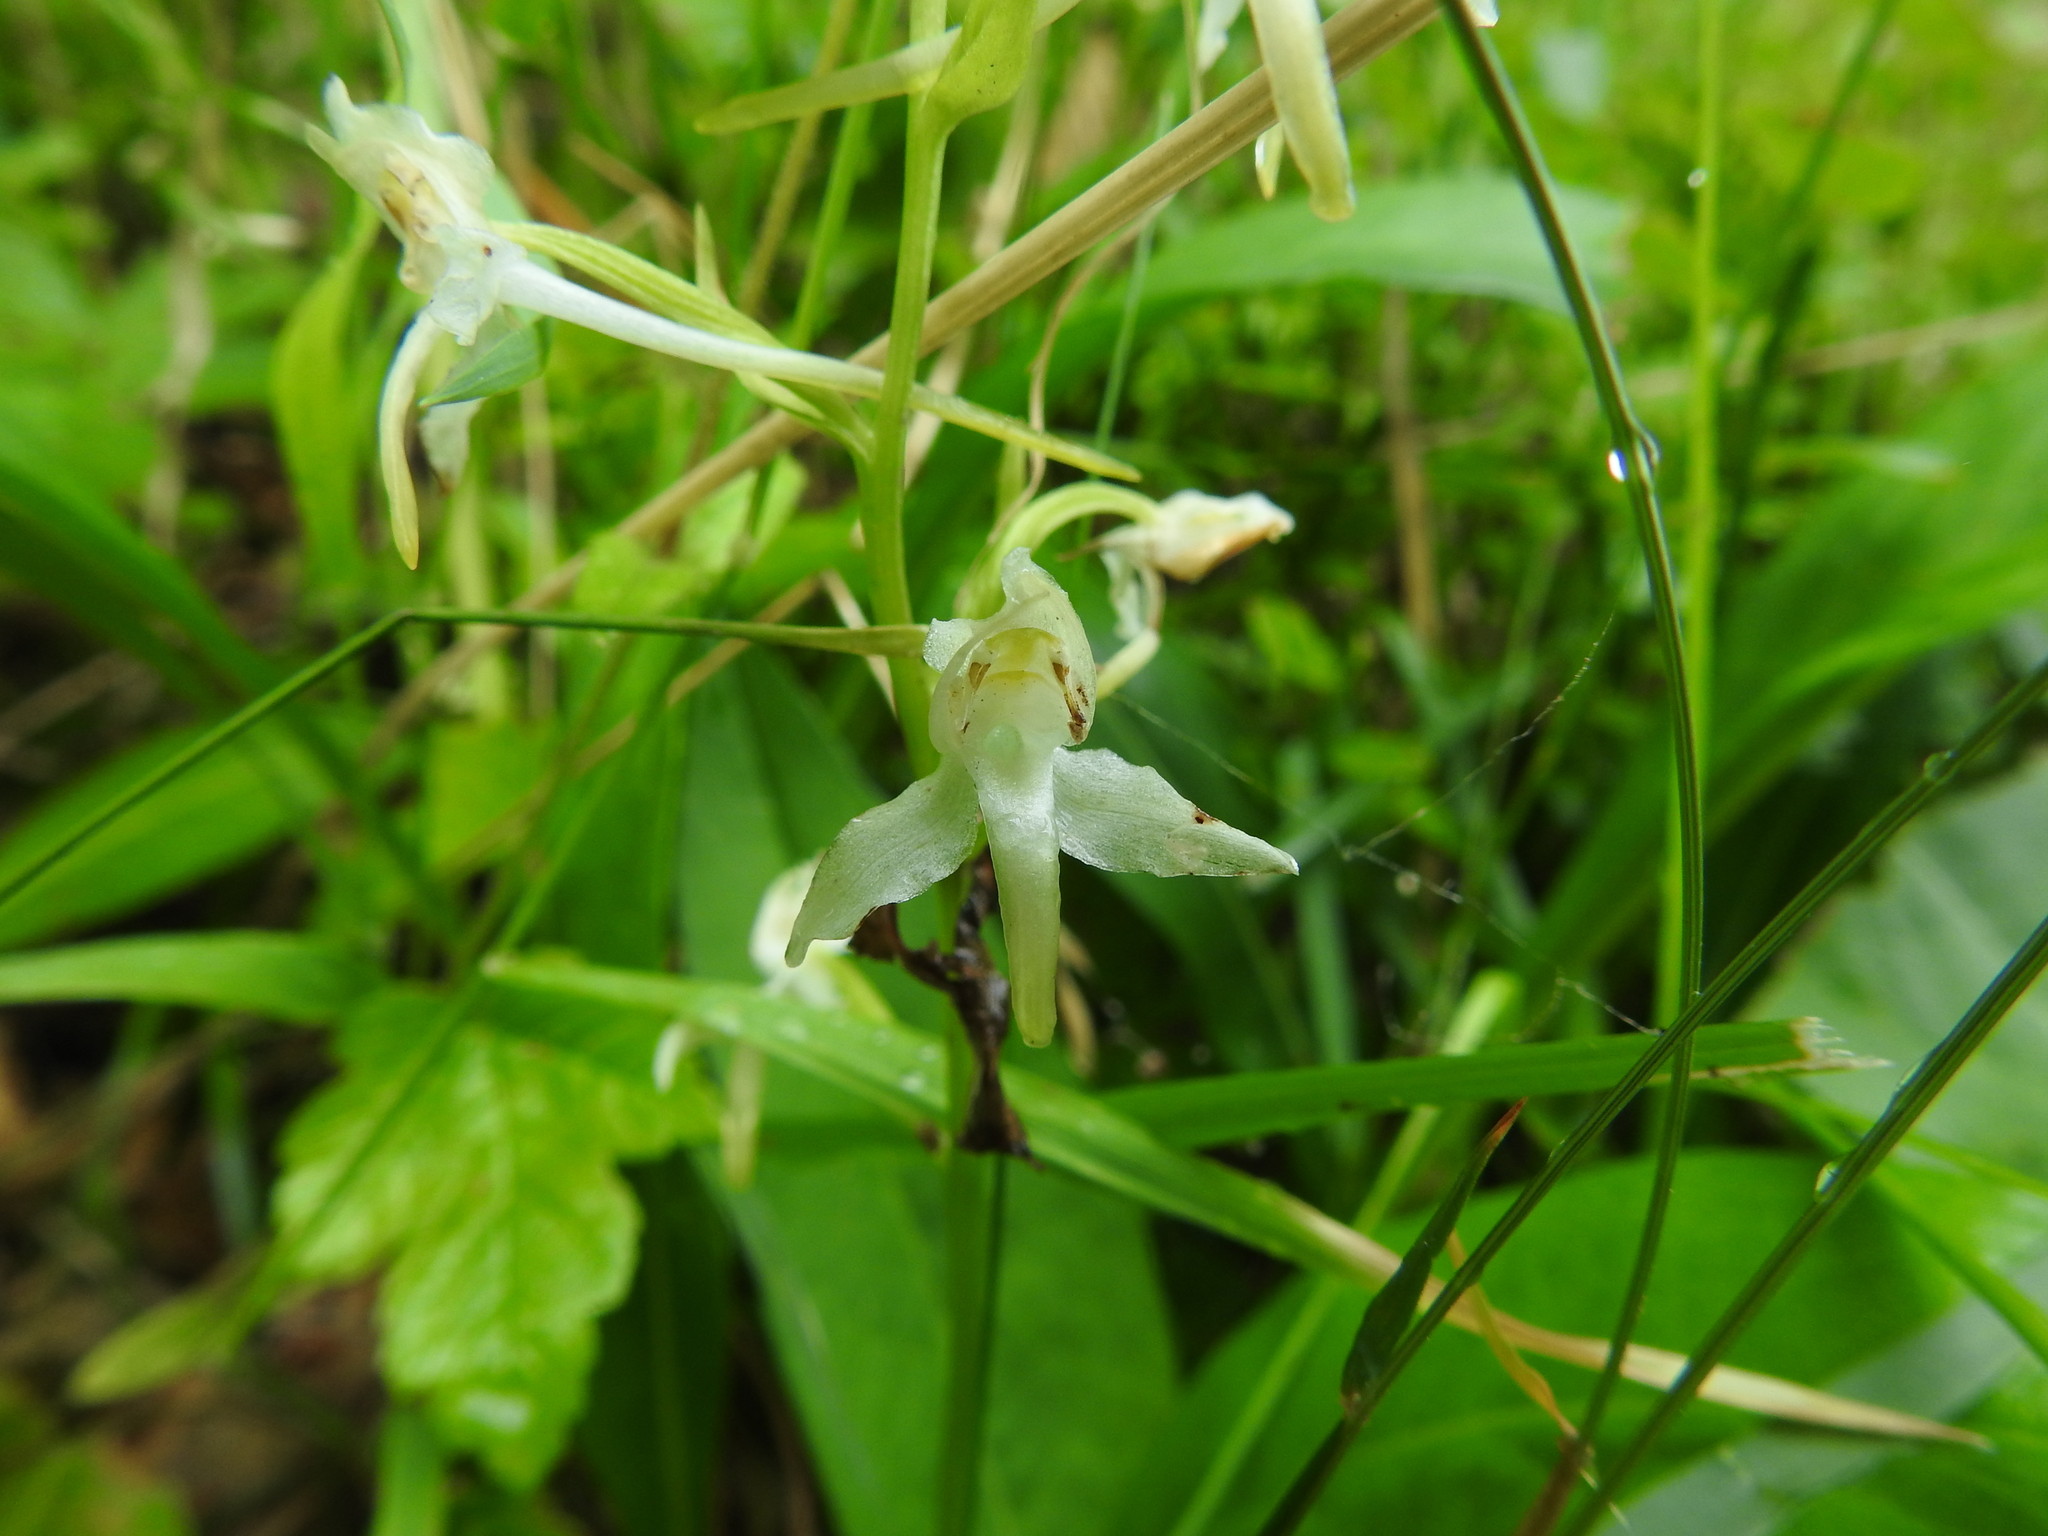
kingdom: Plantae
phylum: Tracheophyta
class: Liliopsida
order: Asparagales
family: Orchidaceae
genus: Platanthera
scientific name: Platanthera chlorantha
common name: Greater butterfly-orchid
